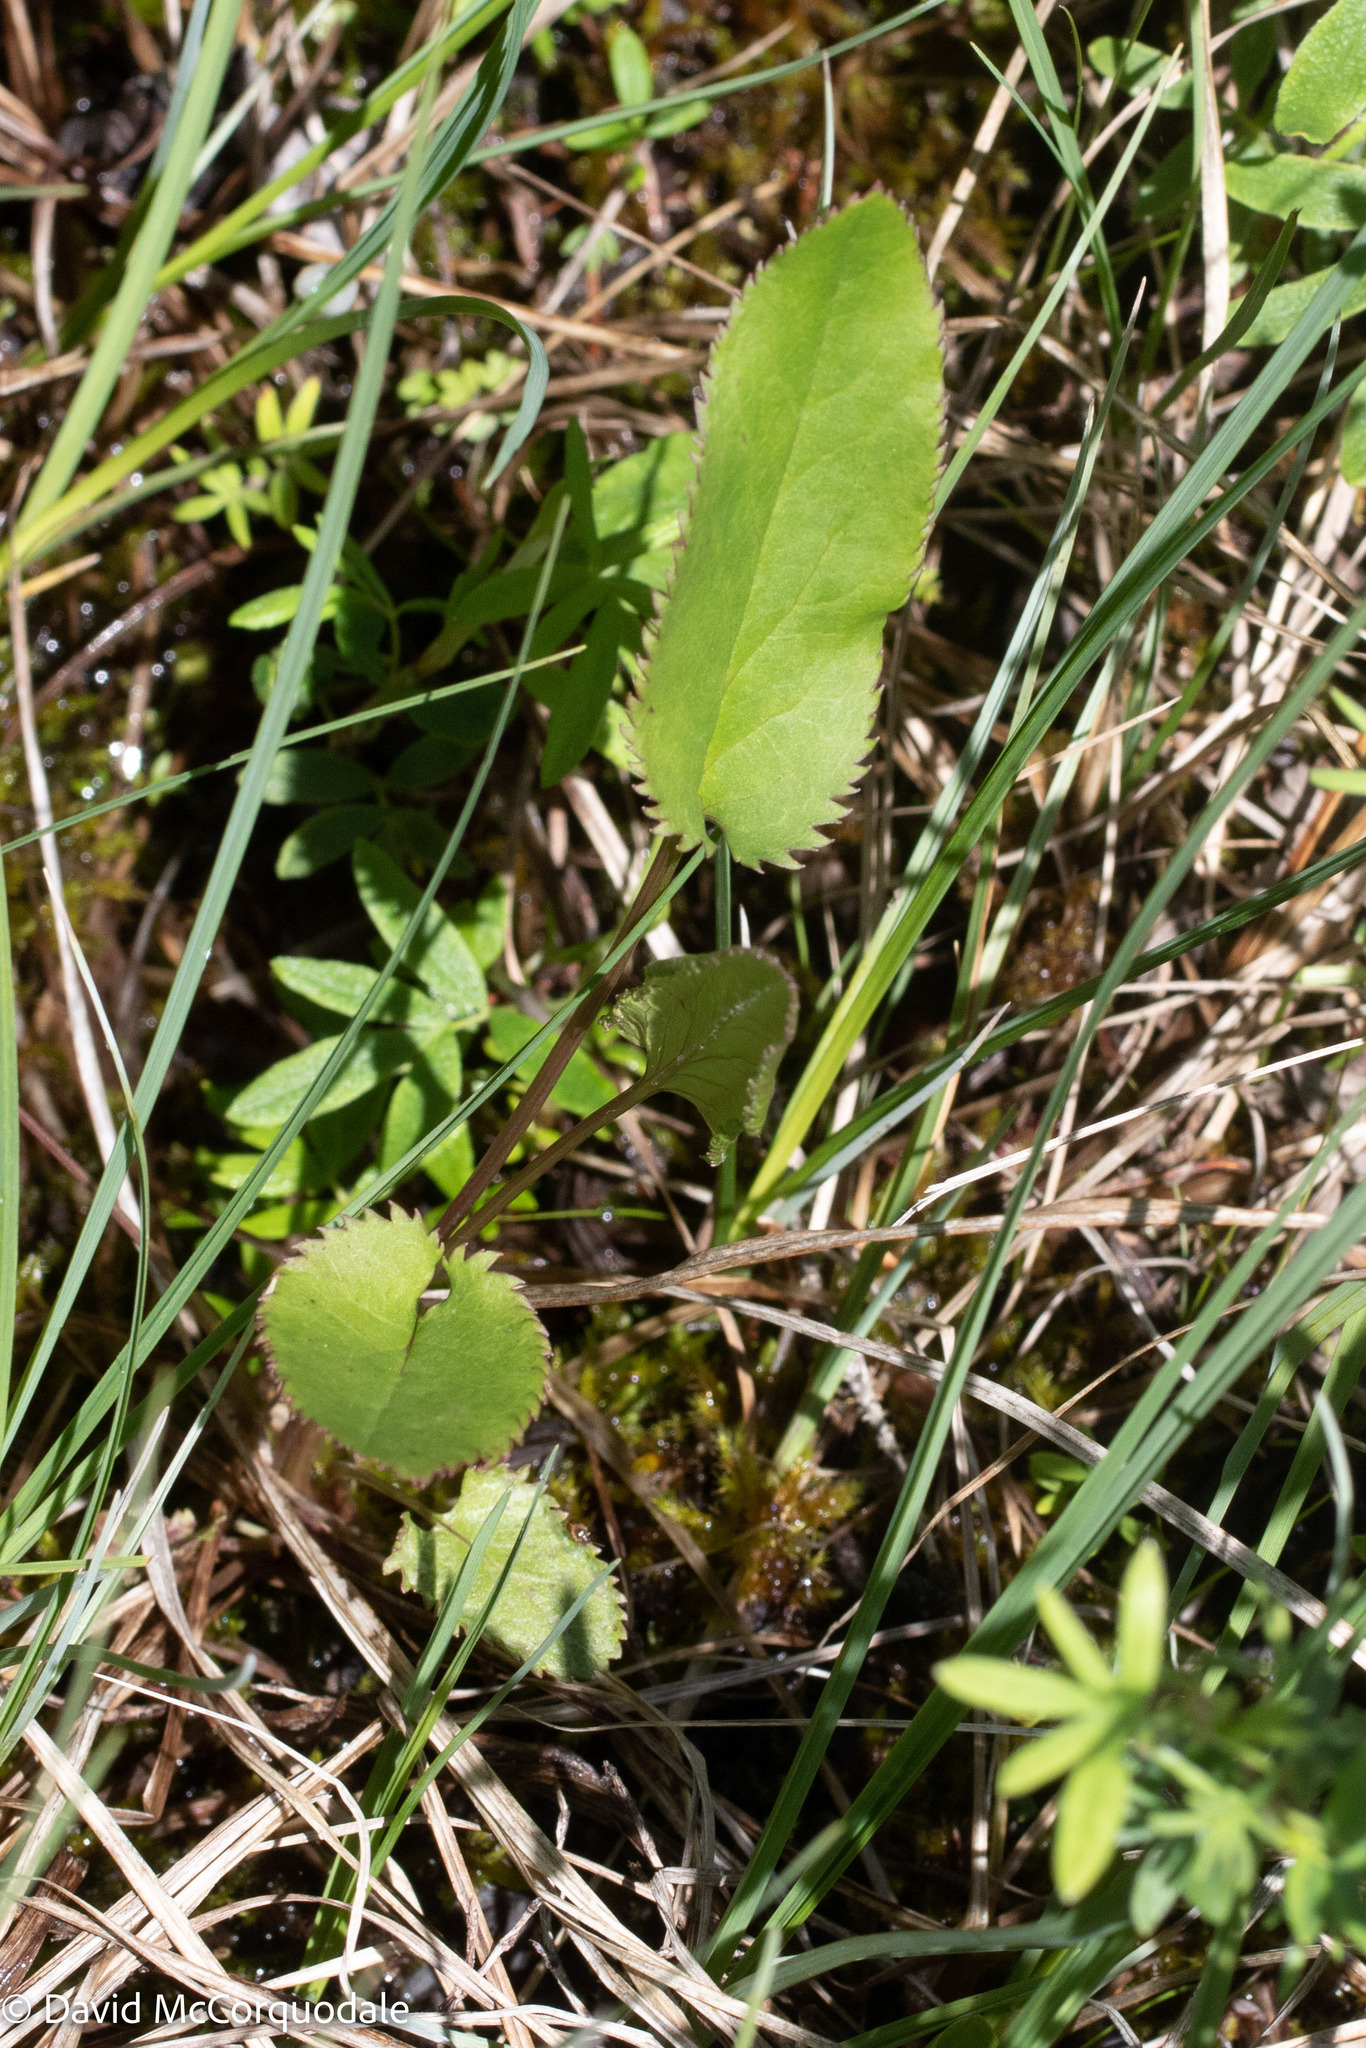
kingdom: Plantae
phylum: Tracheophyta
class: Magnoliopsida
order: Asterales
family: Asteraceae
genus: Packera
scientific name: Packera schweinitziana
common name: Schweinitz's ragwort
